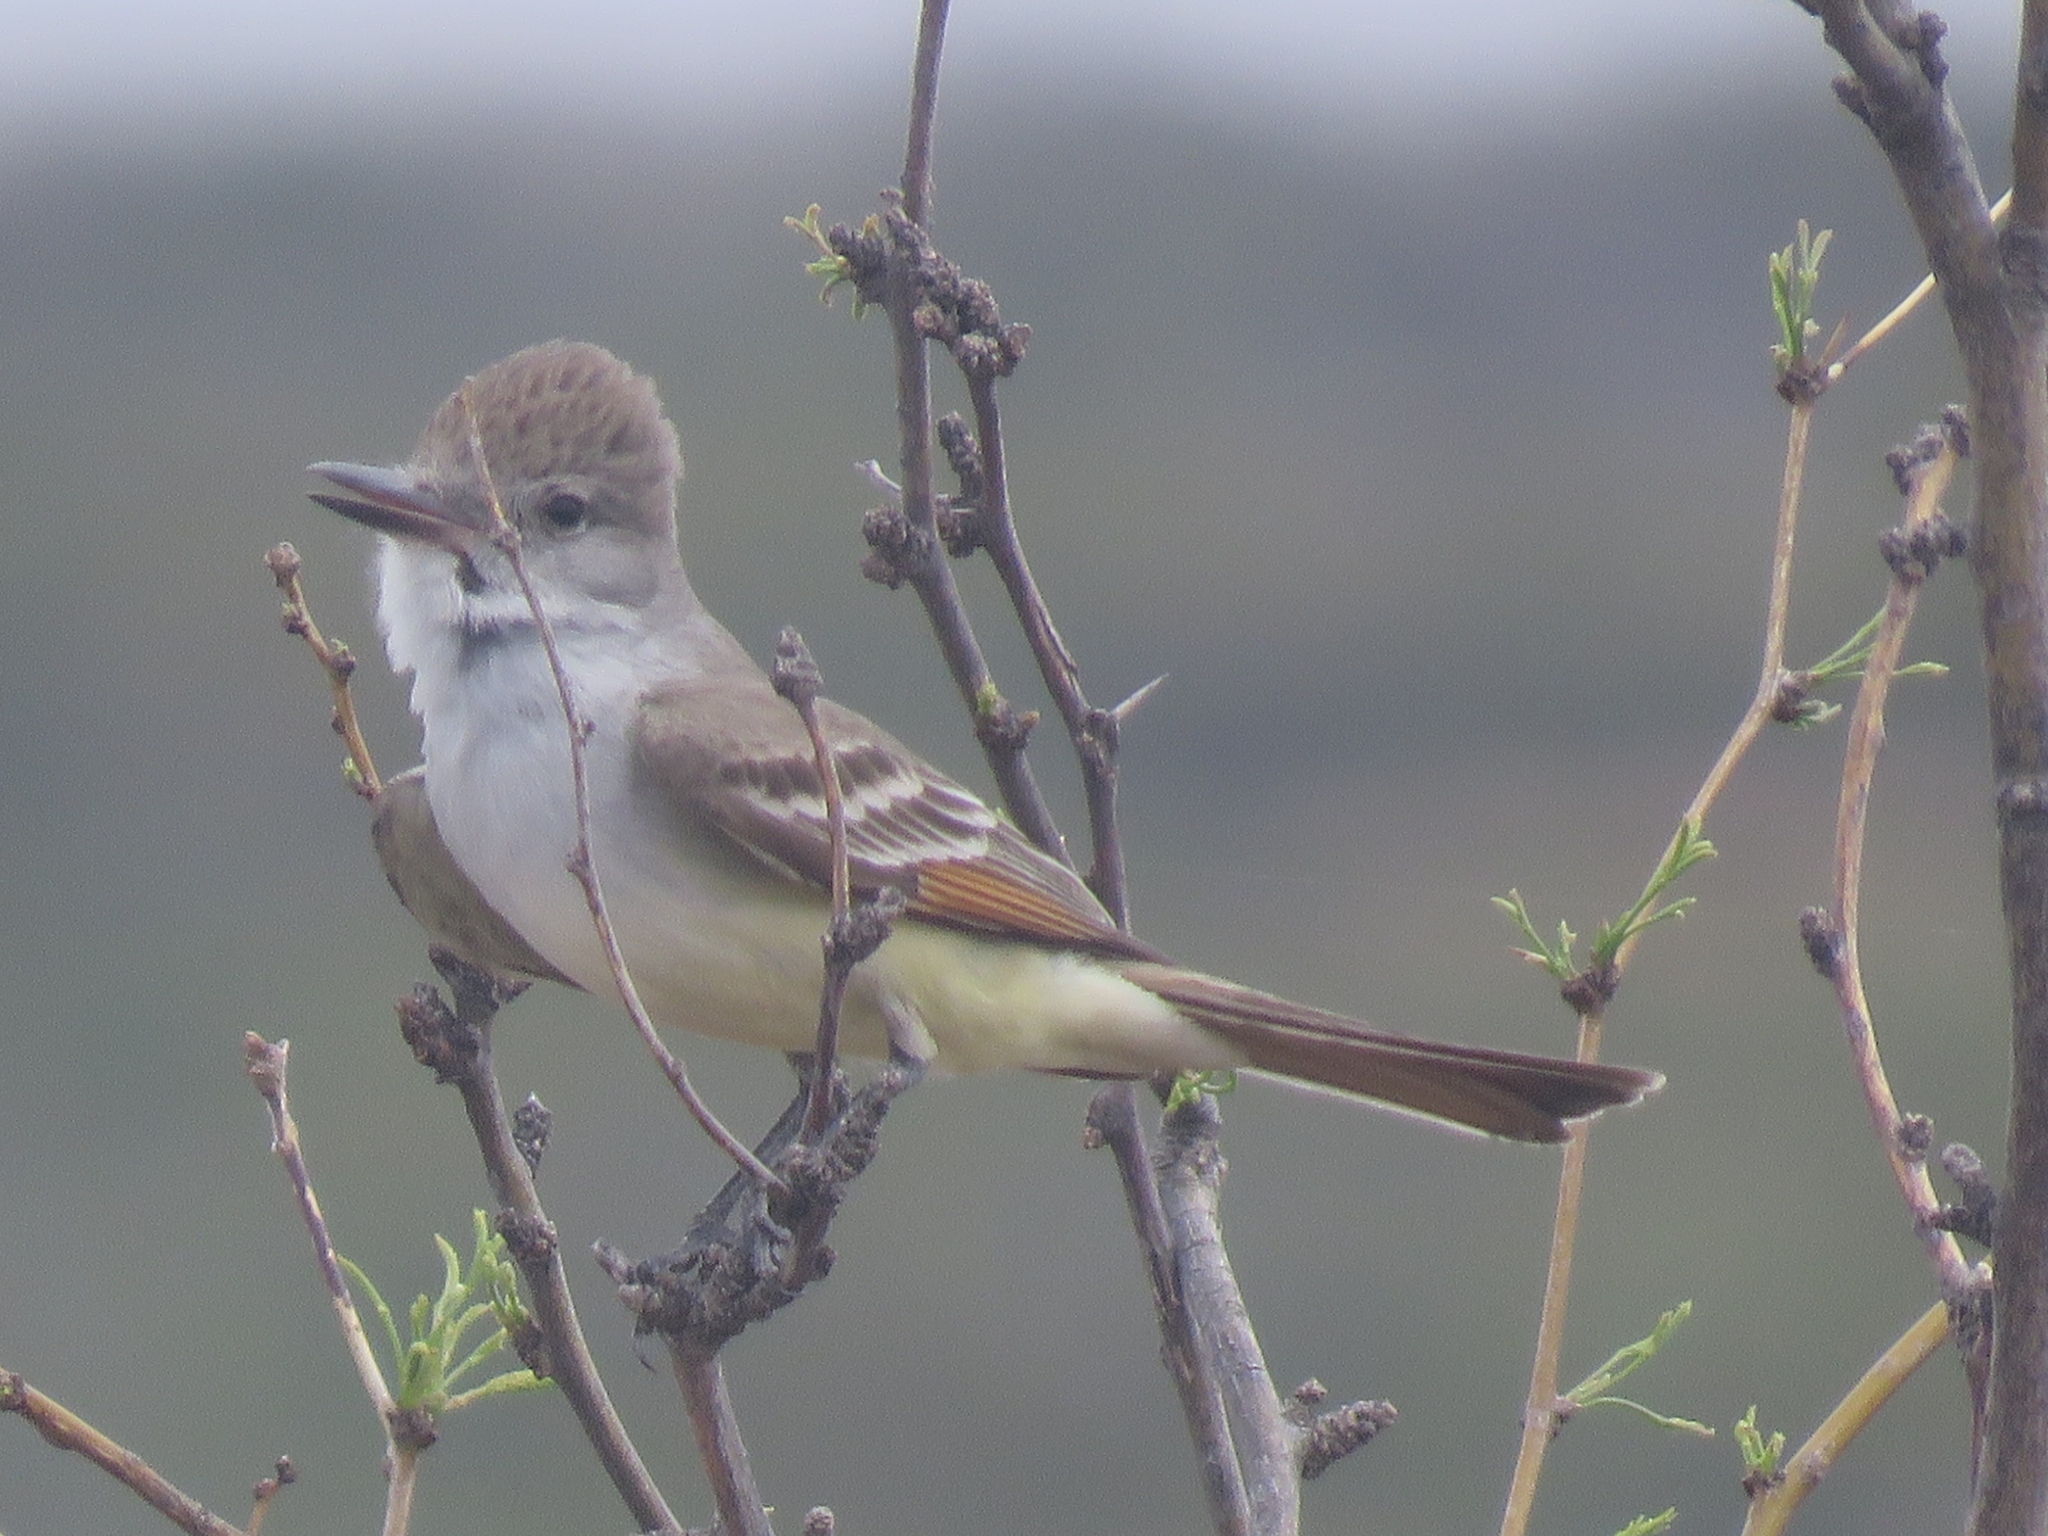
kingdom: Animalia
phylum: Chordata
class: Aves
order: Passeriformes
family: Tyrannidae
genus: Myiarchus
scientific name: Myiarchus cinerascens
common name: Ash-throated flycatcher
